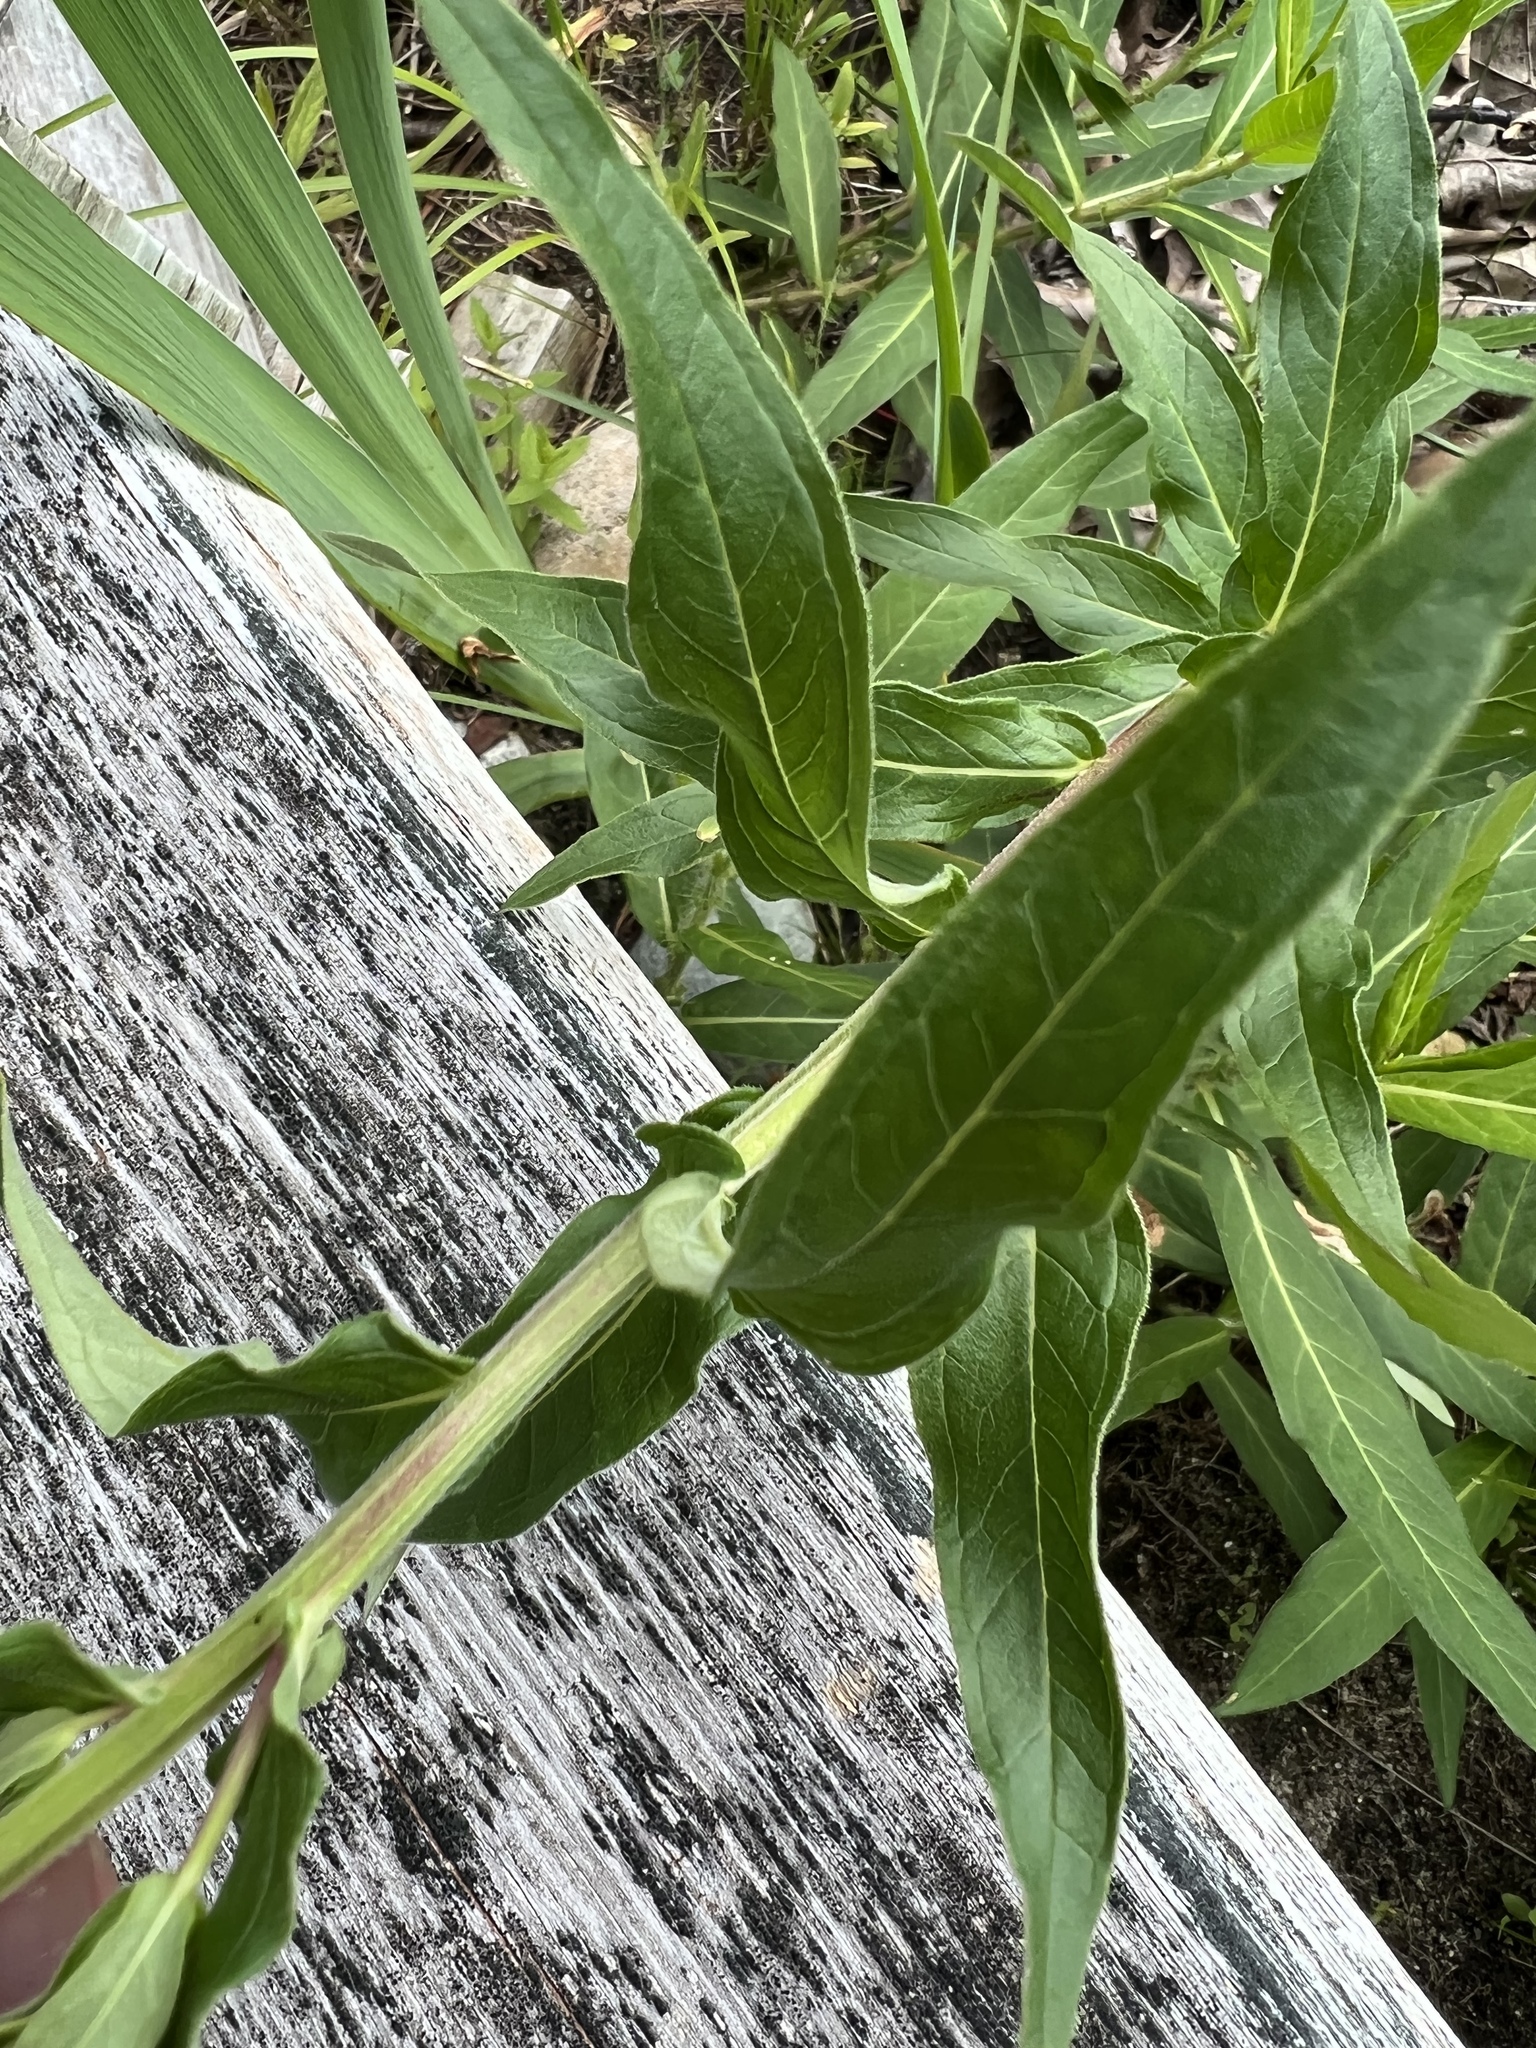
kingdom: Plantae
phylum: Tracheophyta
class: Magnoliopsida
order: Myrtales
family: Lythraceae
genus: Lythrum
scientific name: Lythrum salicaria
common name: Purple loosestrife
